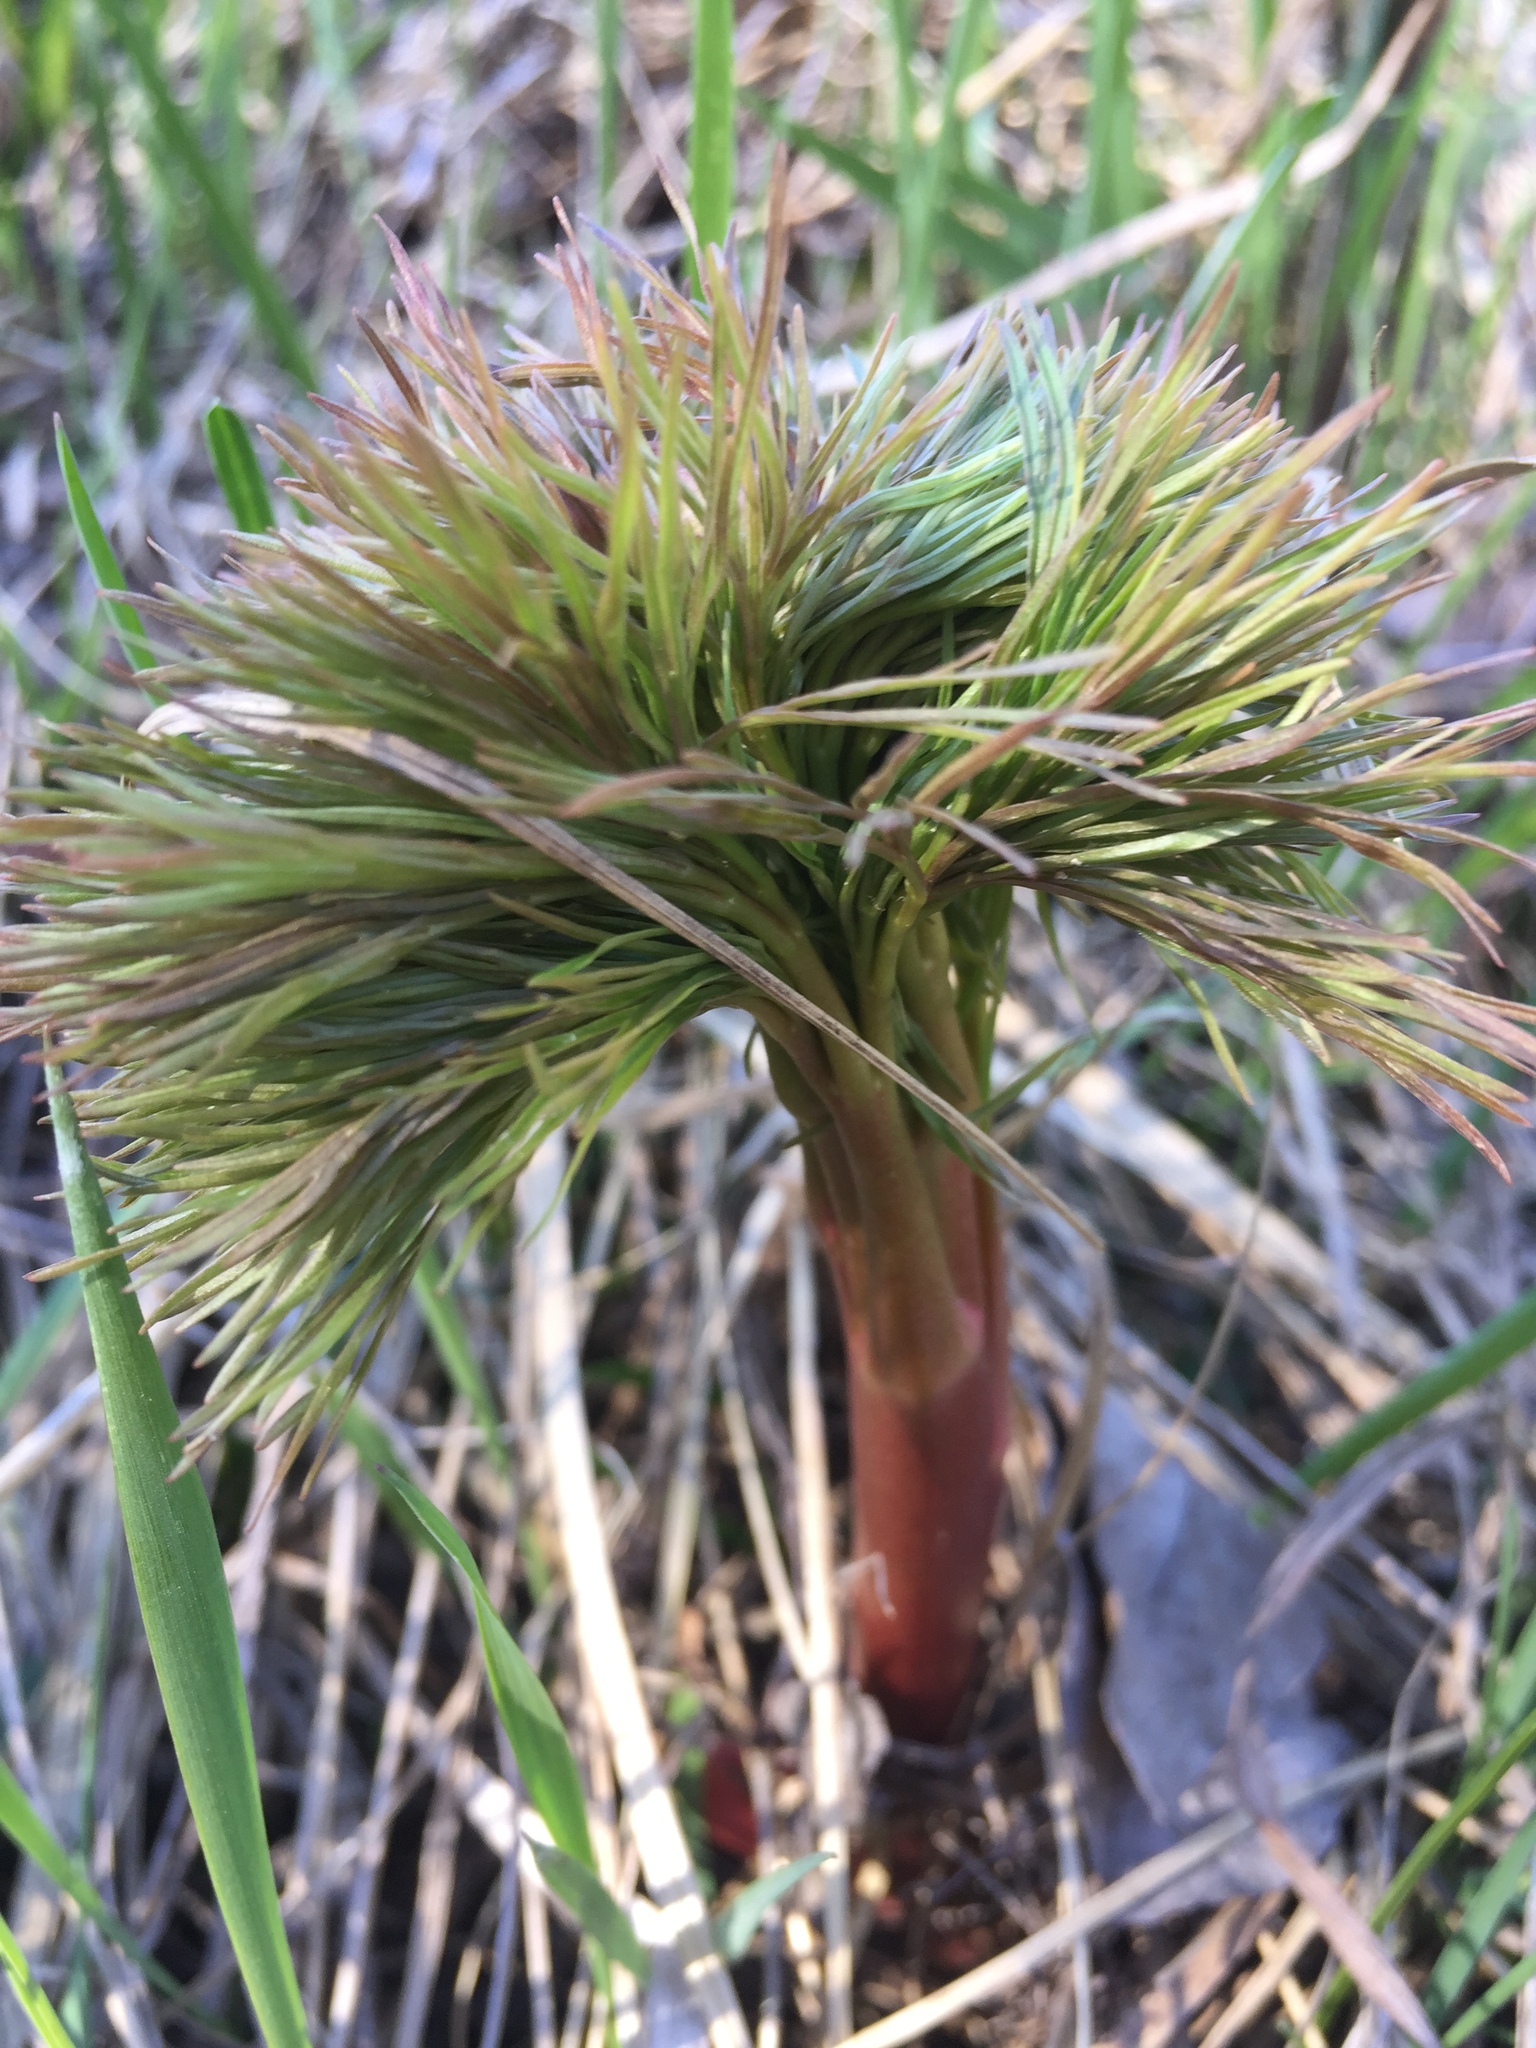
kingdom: Plantae
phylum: Tracheophyta
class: Magnoliopsida
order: Saxifragales
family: Paeoniaceae
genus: Paeonia
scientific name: Paeonia tenuifolia
